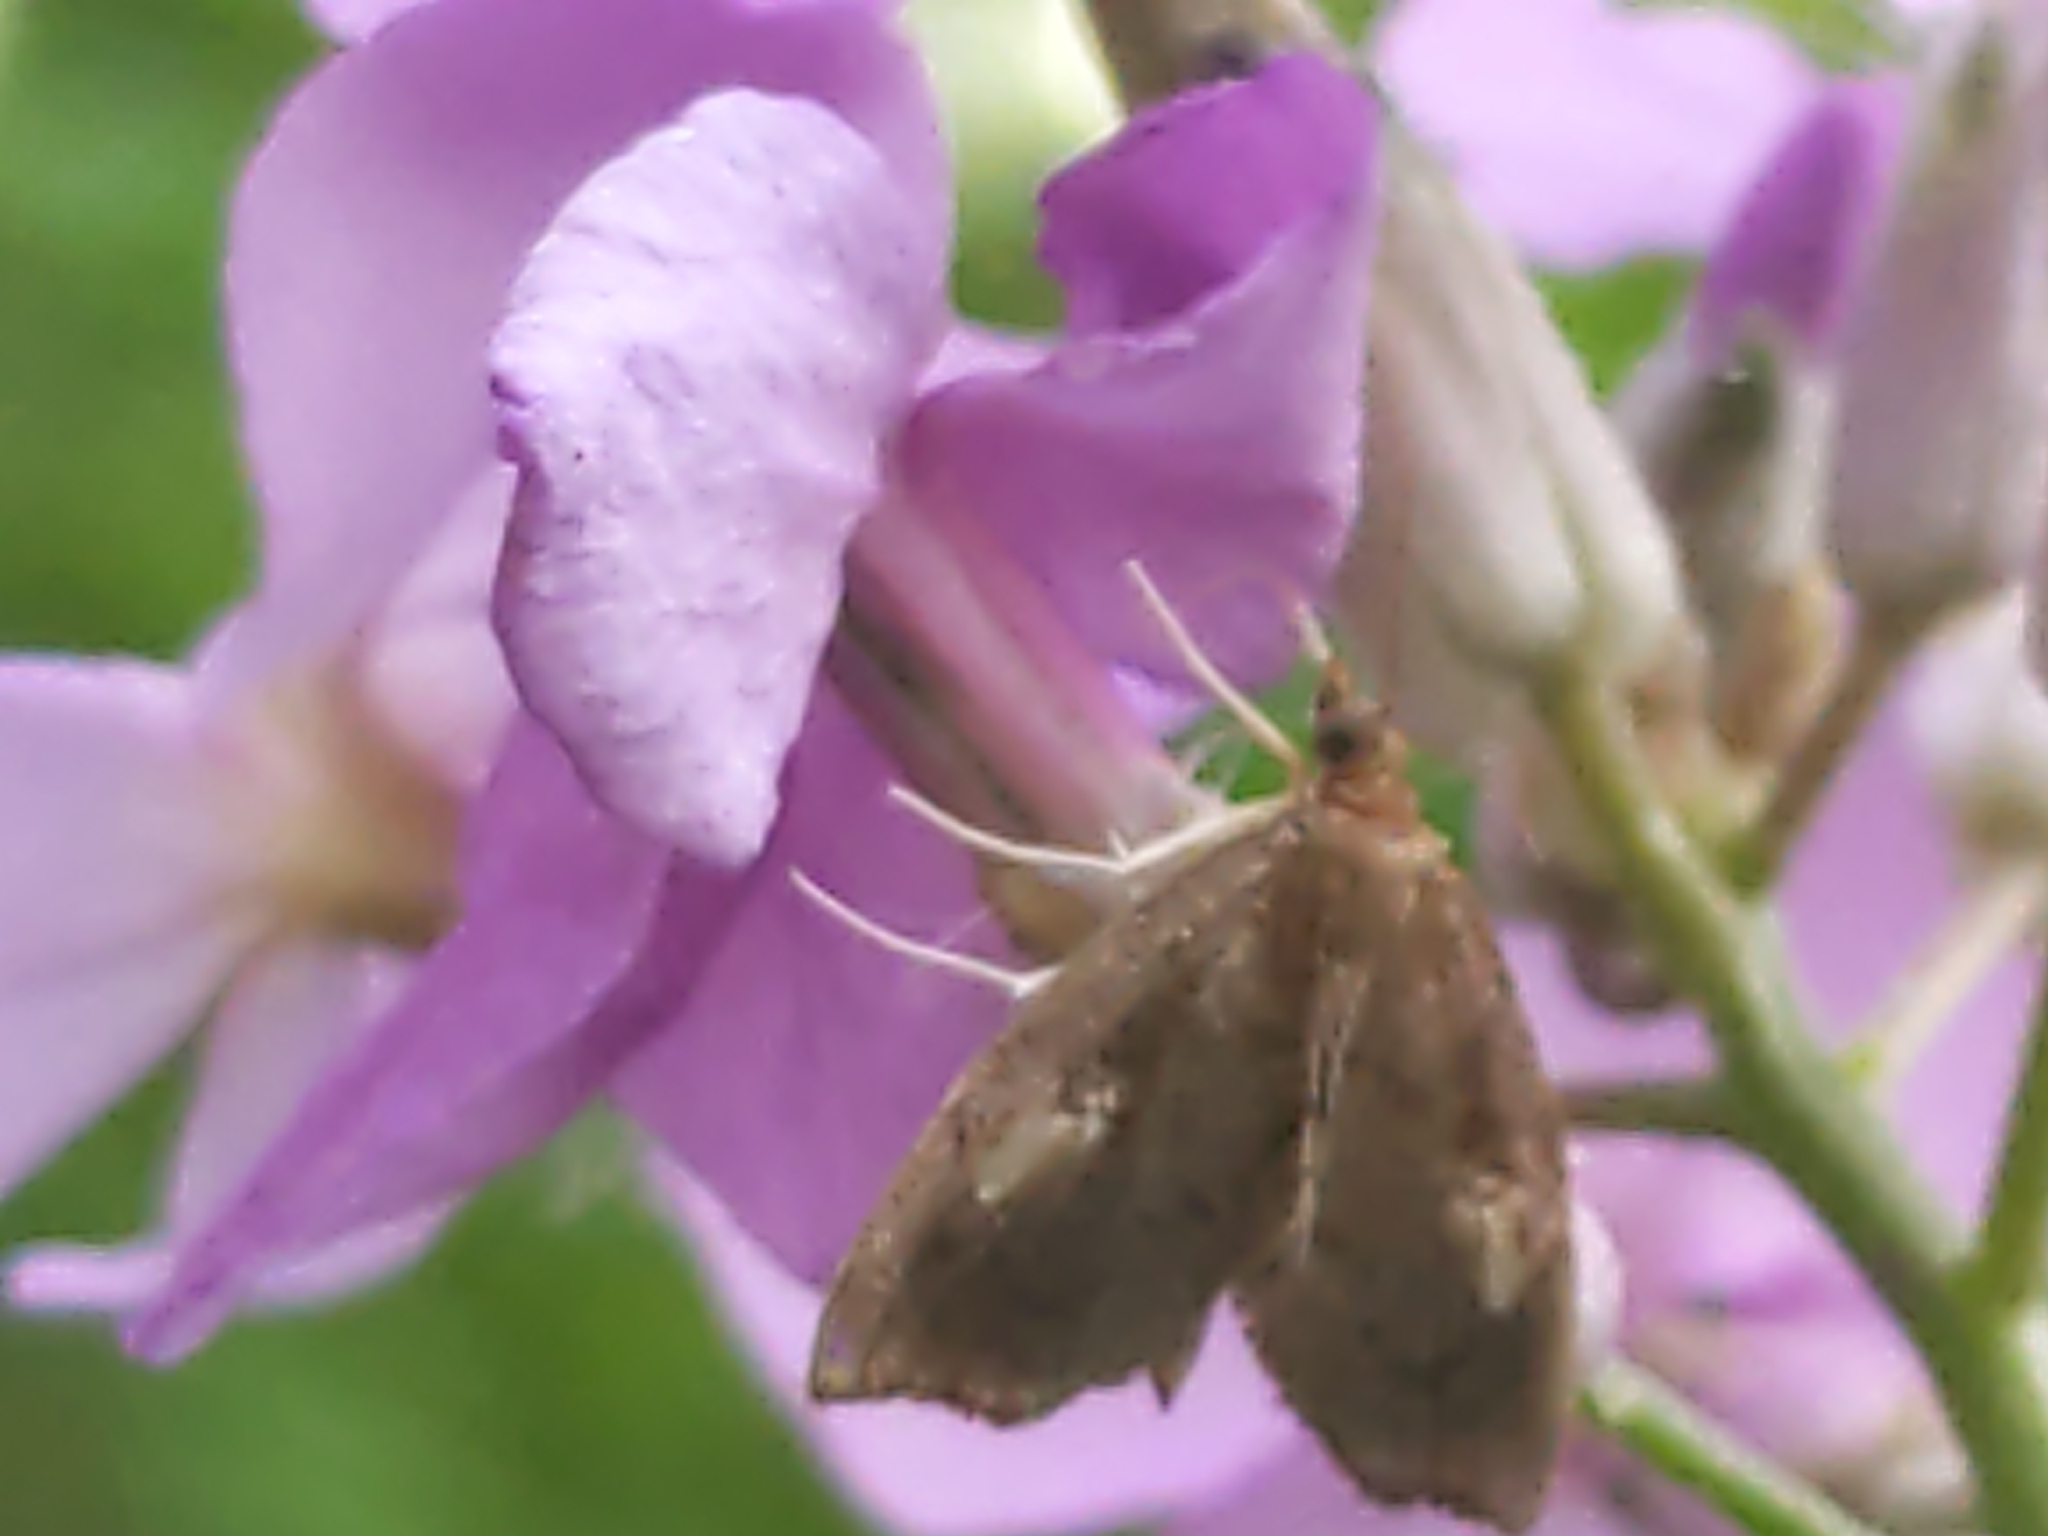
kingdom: Animalia
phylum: Arthropoda
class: Insecta
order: Lepidoptera
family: Crambidae
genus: Perispasta
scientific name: Perispasta caeculalis
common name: Titian peale's moth
